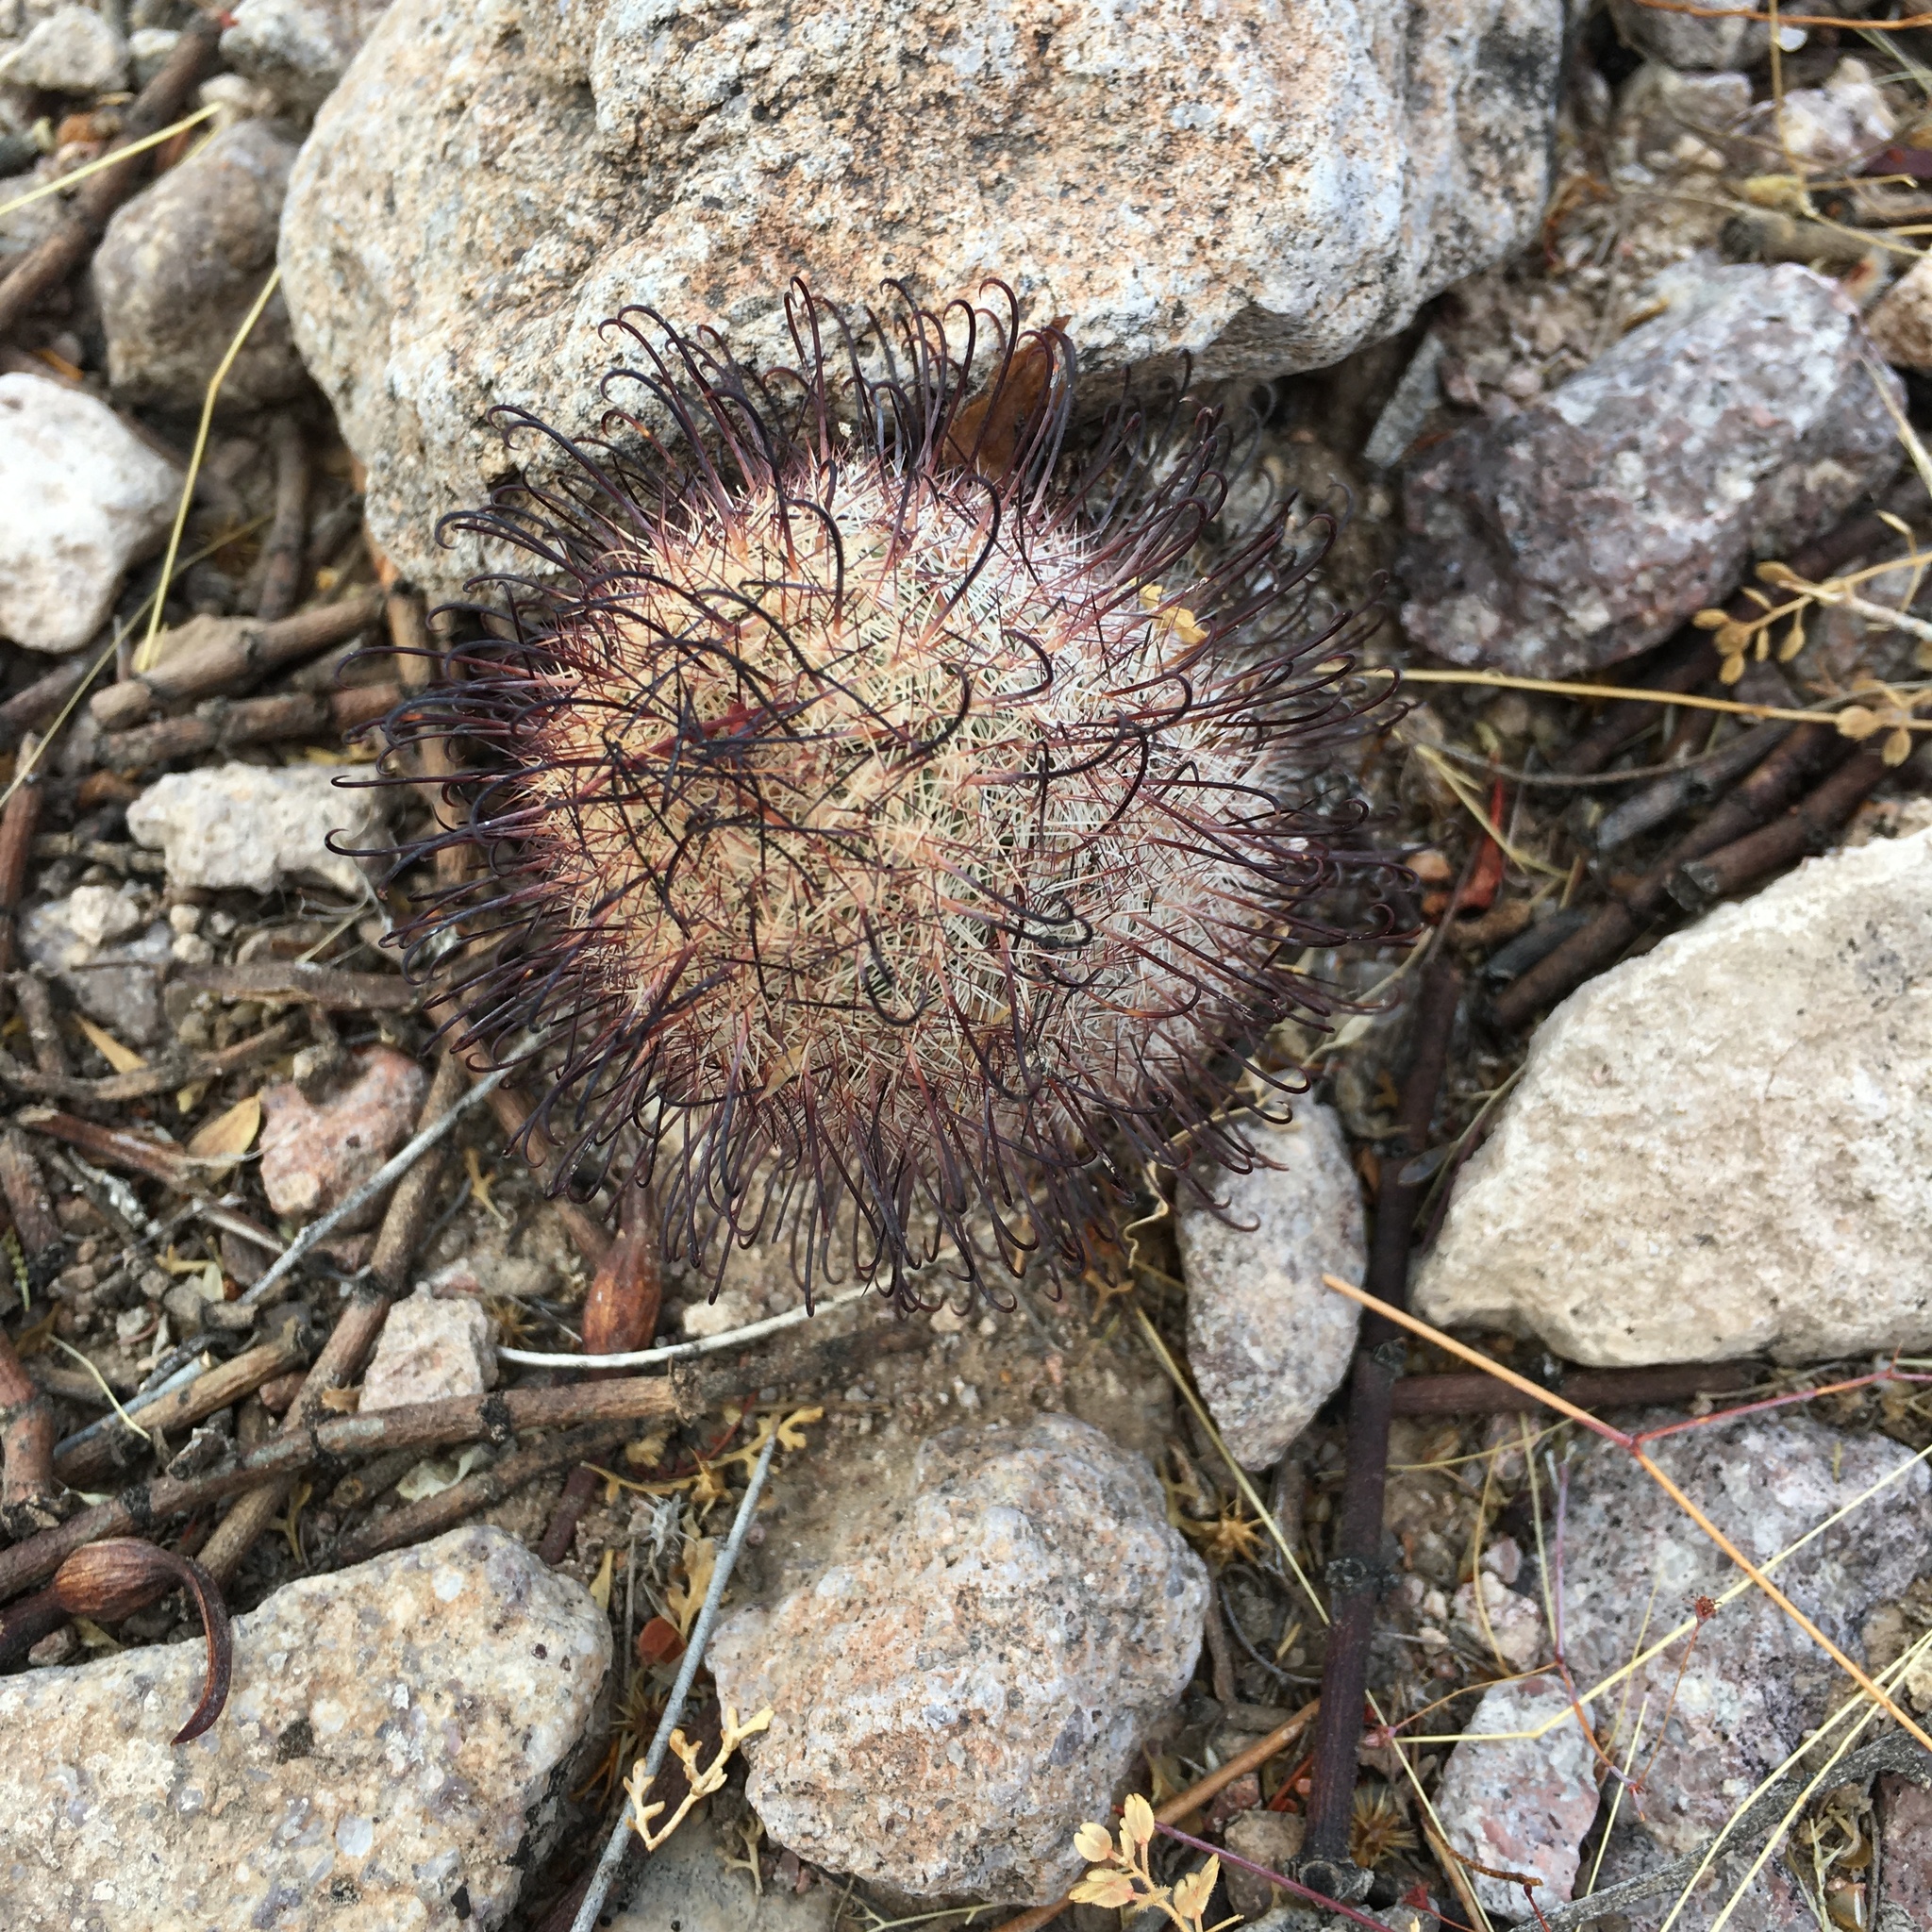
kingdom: Plantae
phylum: Tracheophyta
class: Magnoliopsida
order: Caryophyllales
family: Cactaceae
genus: Cochemiea
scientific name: Cochemiea grahamii
